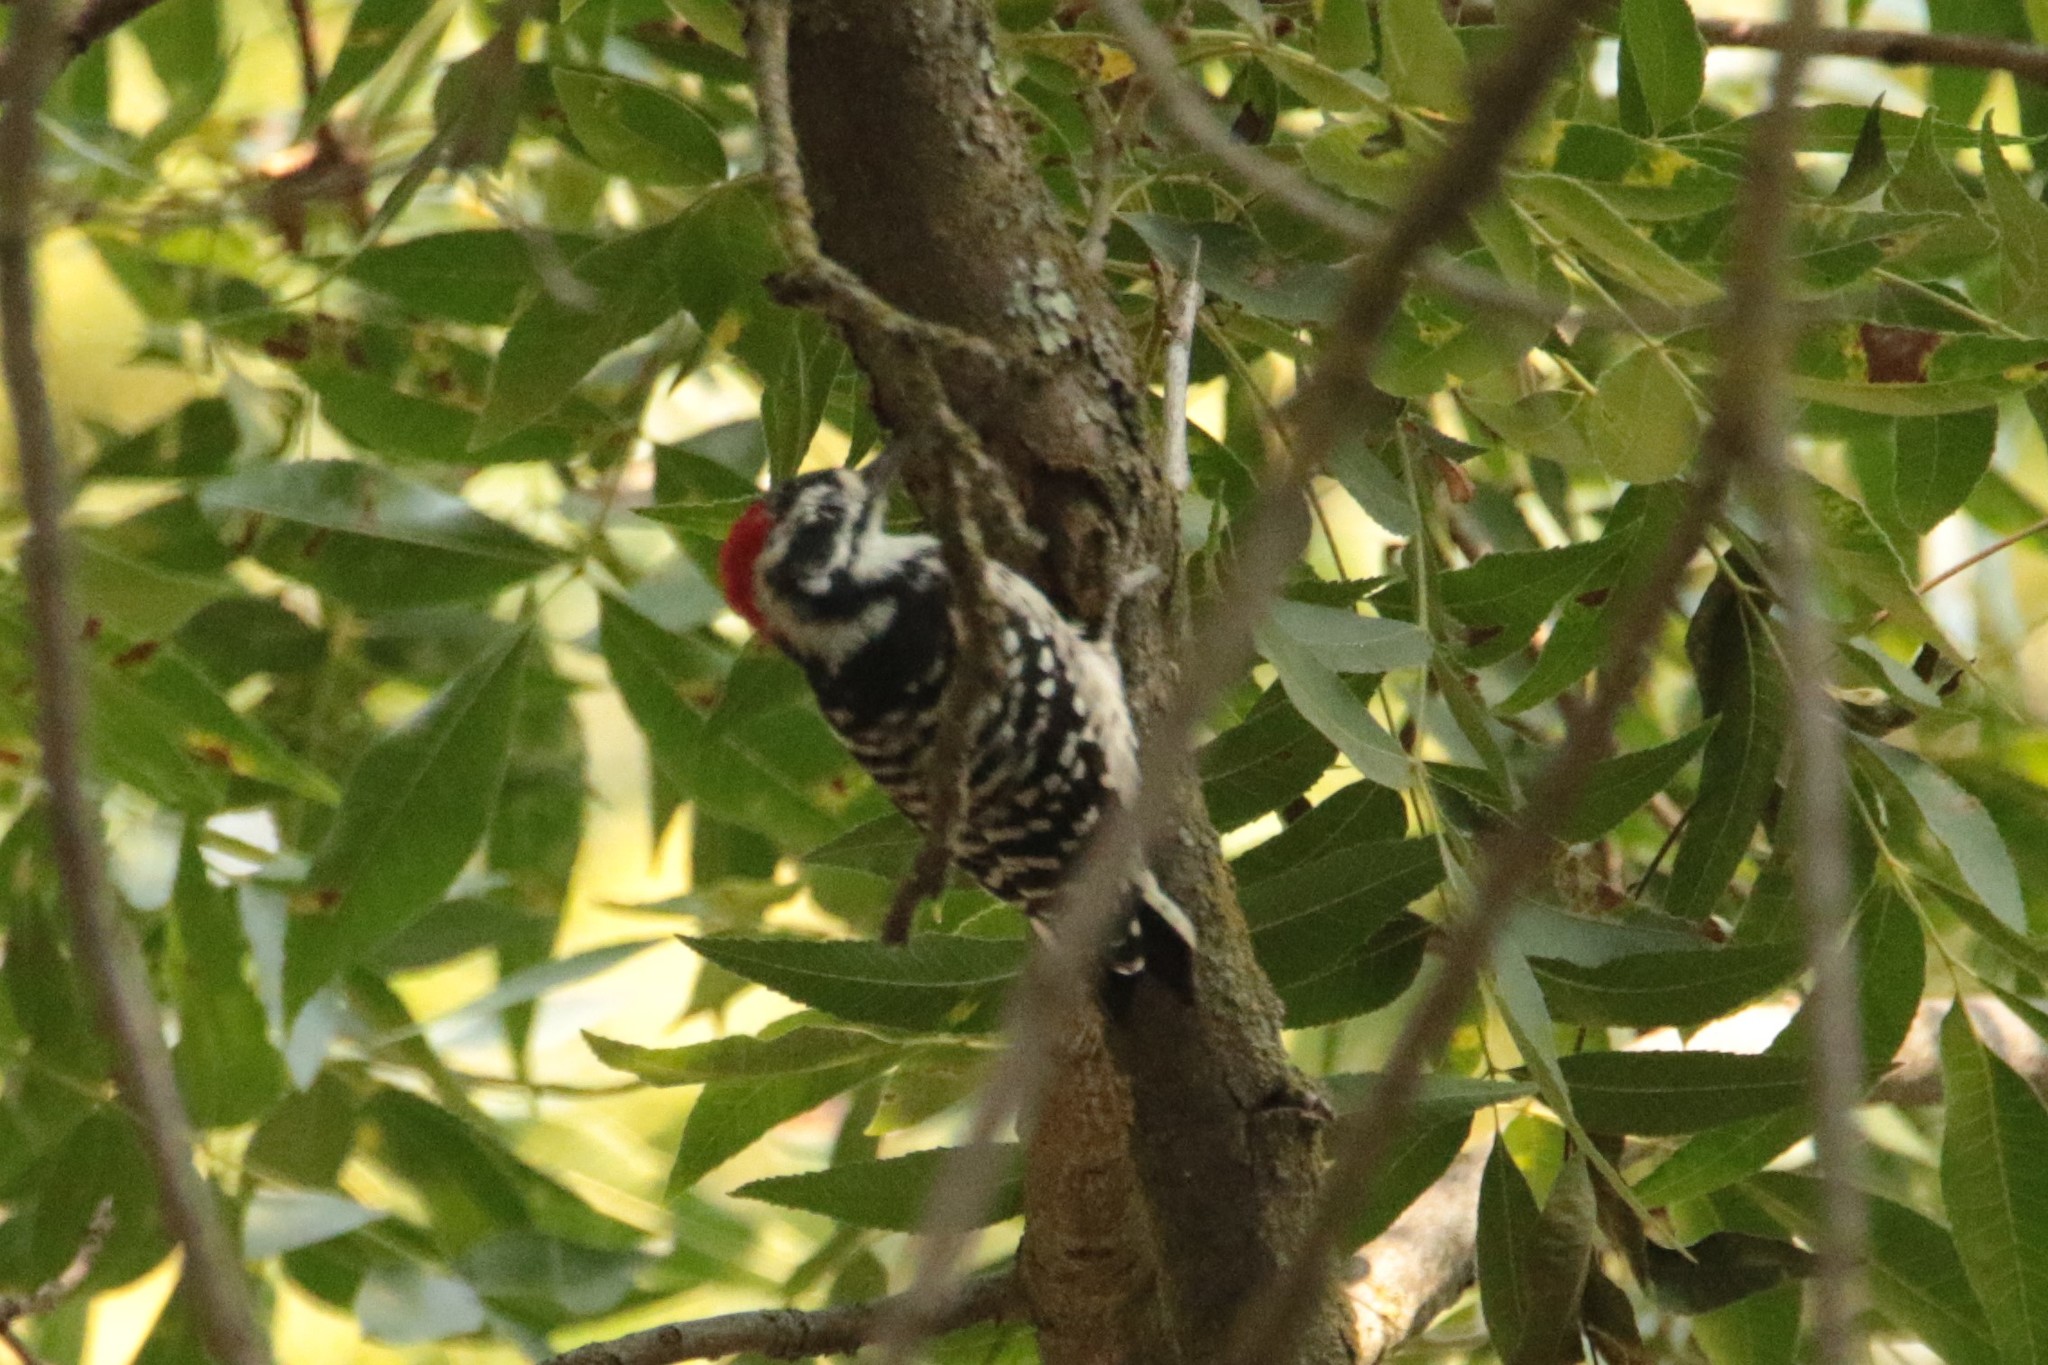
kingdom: Animalia
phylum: Chordata
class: Aves
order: Piciformes
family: Picidae
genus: Dryobates
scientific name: Dryobates nuttallii
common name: Nuttall's woodpecker
